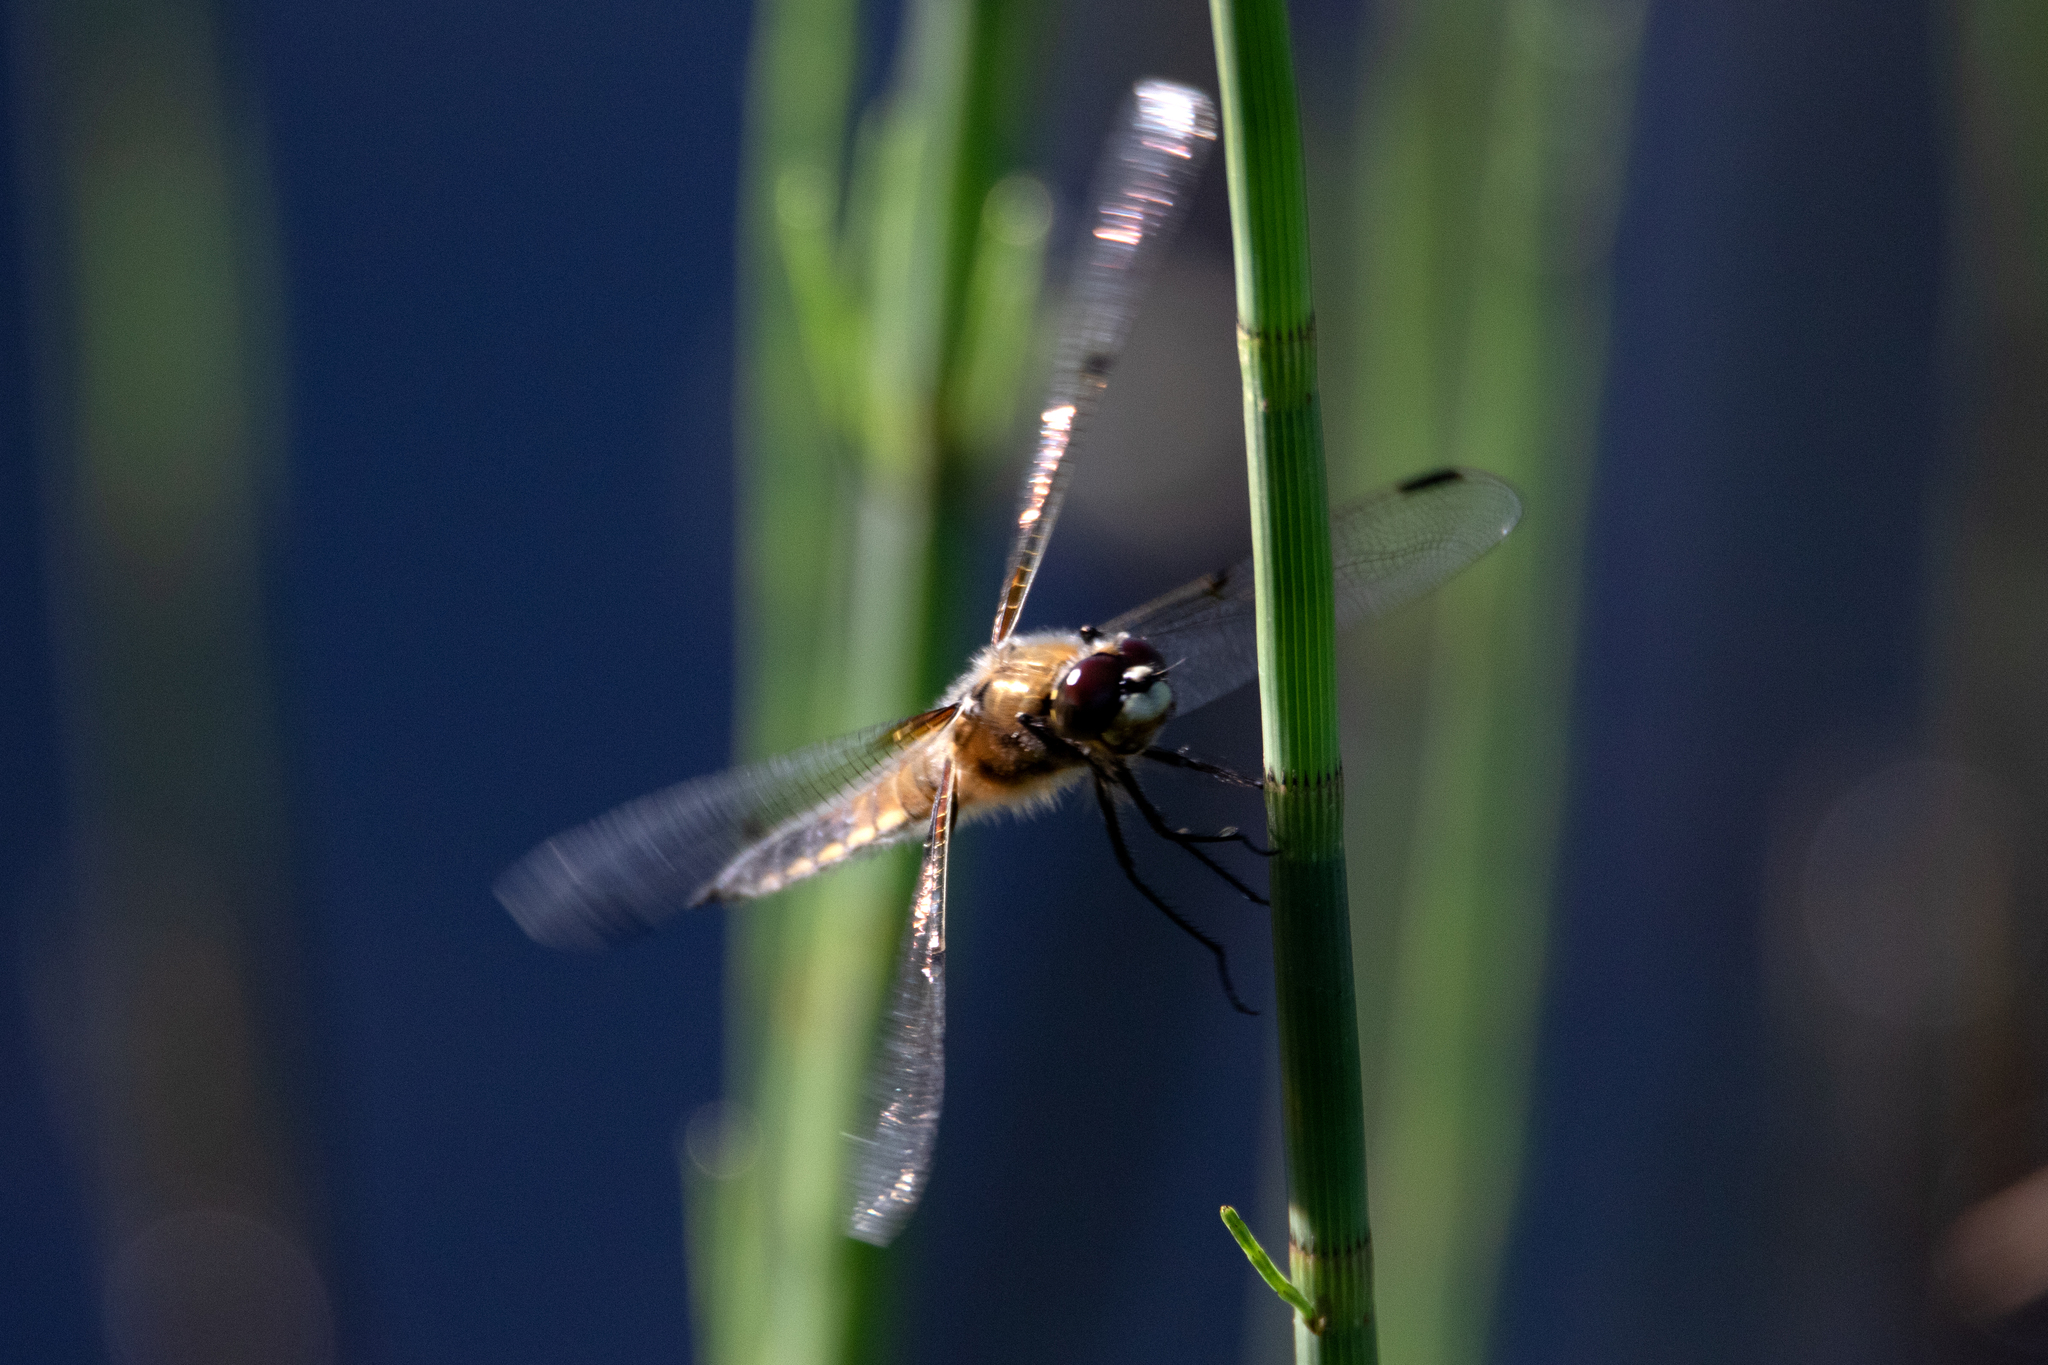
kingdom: Animalia
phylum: Arthropoda
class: Insecta
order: Odonata
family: Libellulidae
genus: Libellula
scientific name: Libellula quadrimaculata
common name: Four-spotted chaser
